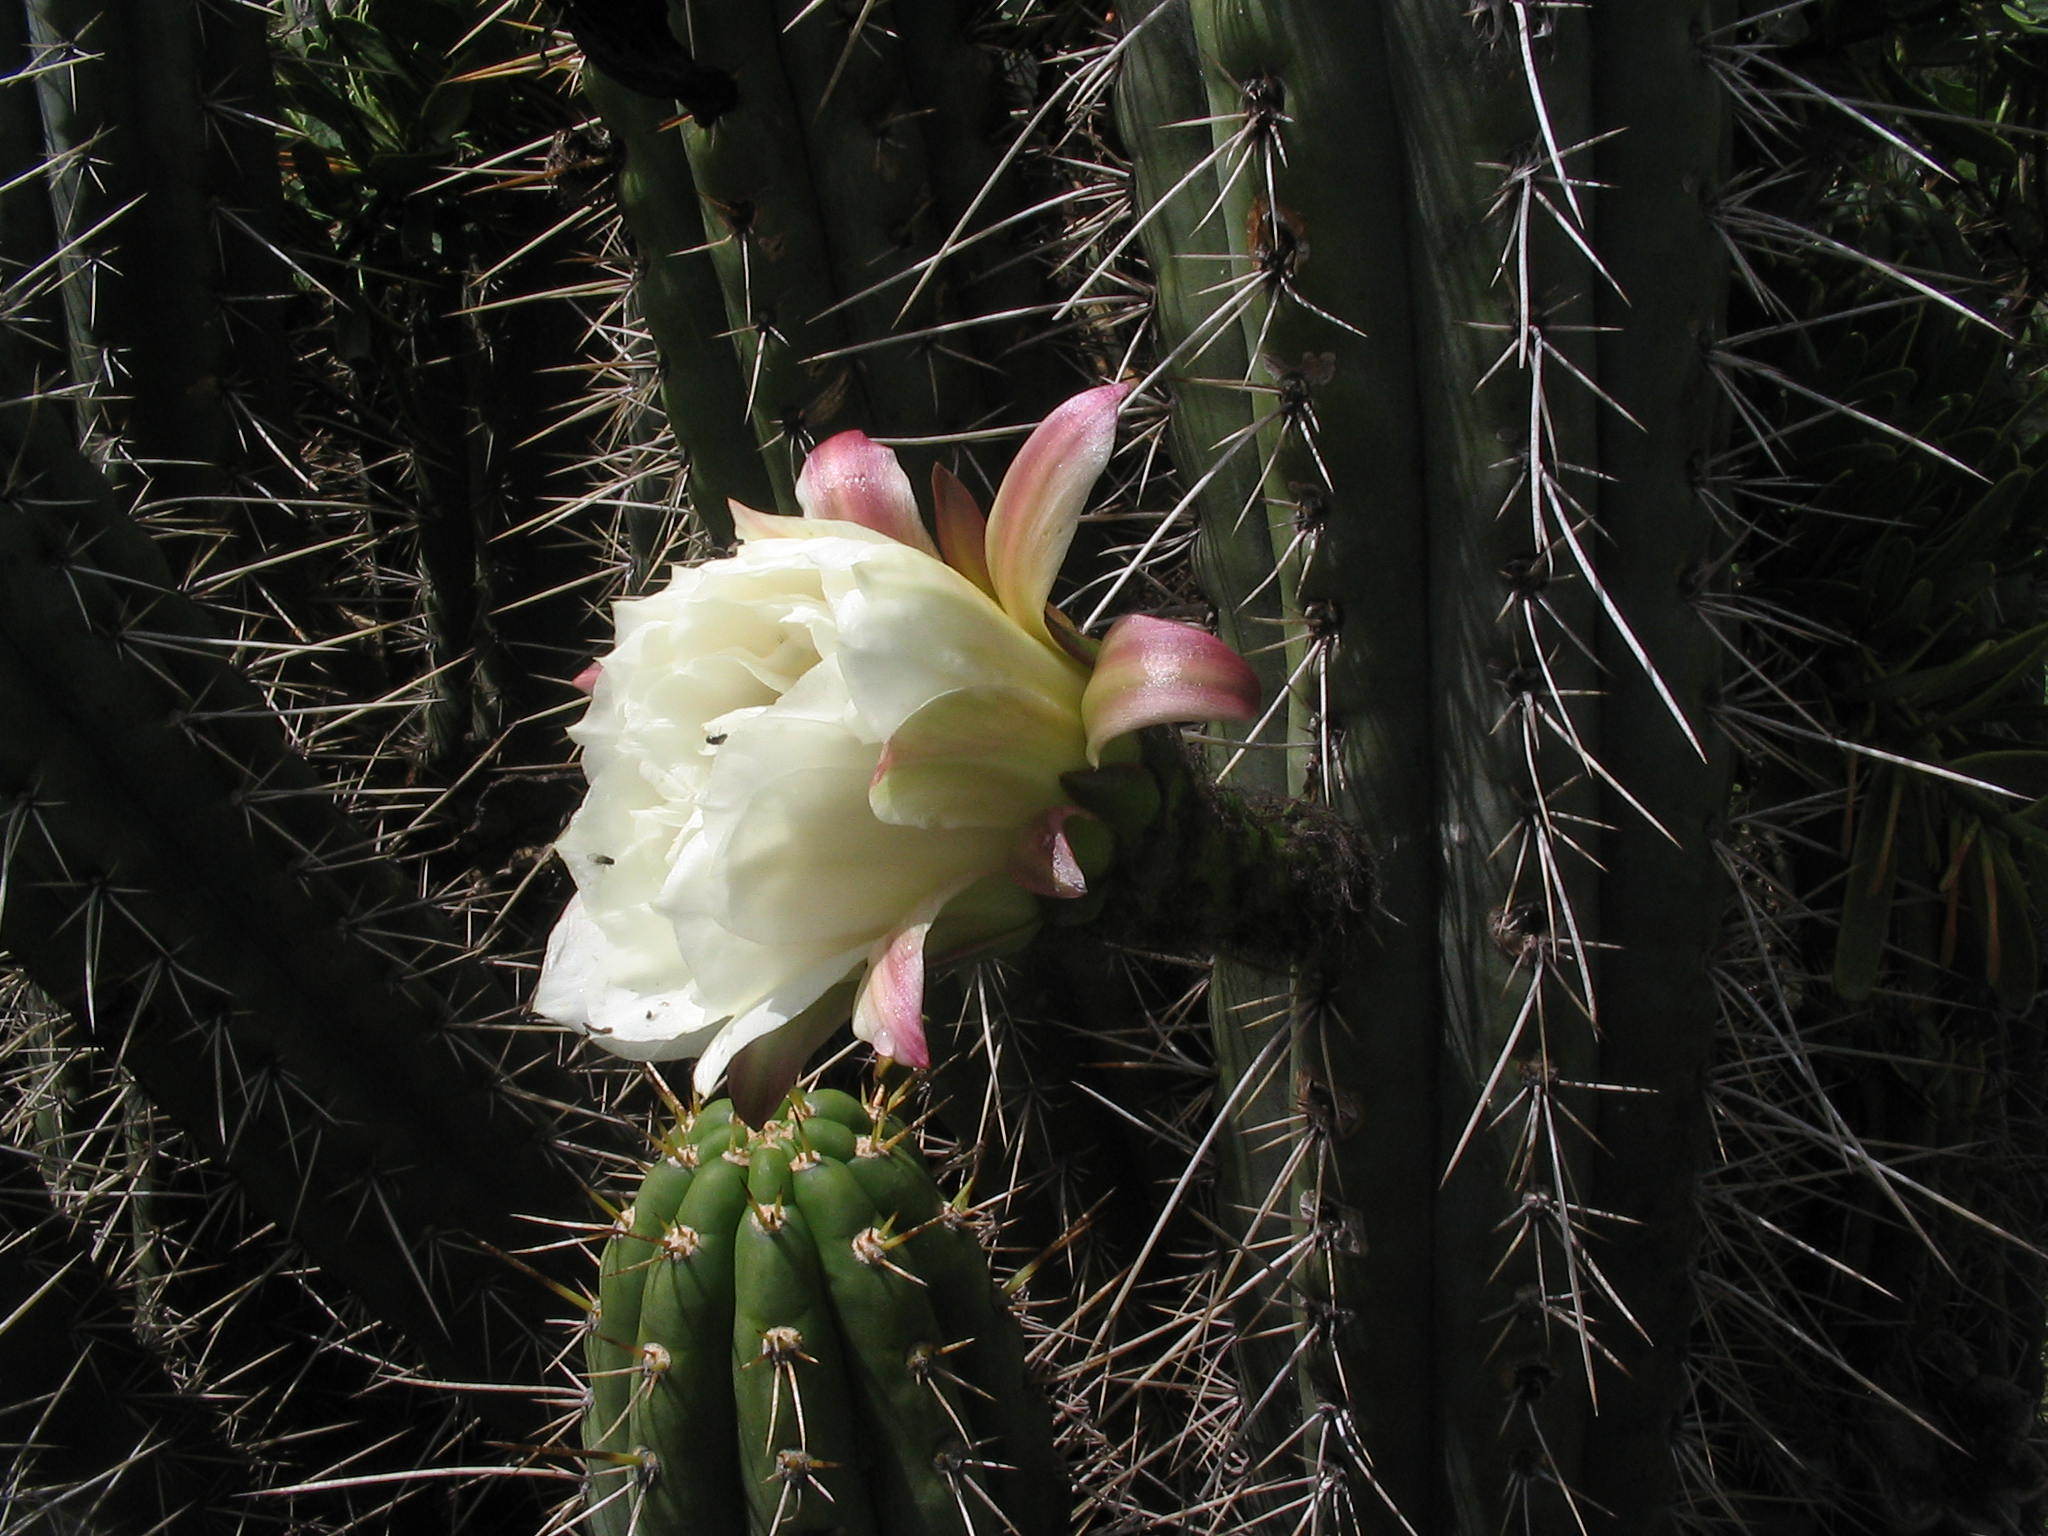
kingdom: Plantae
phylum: Tracheophyta
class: Magnoliopsida
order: Caryophyllales
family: Cactaceae
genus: Trichocereus
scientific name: Trichocereus cuzcoensis
